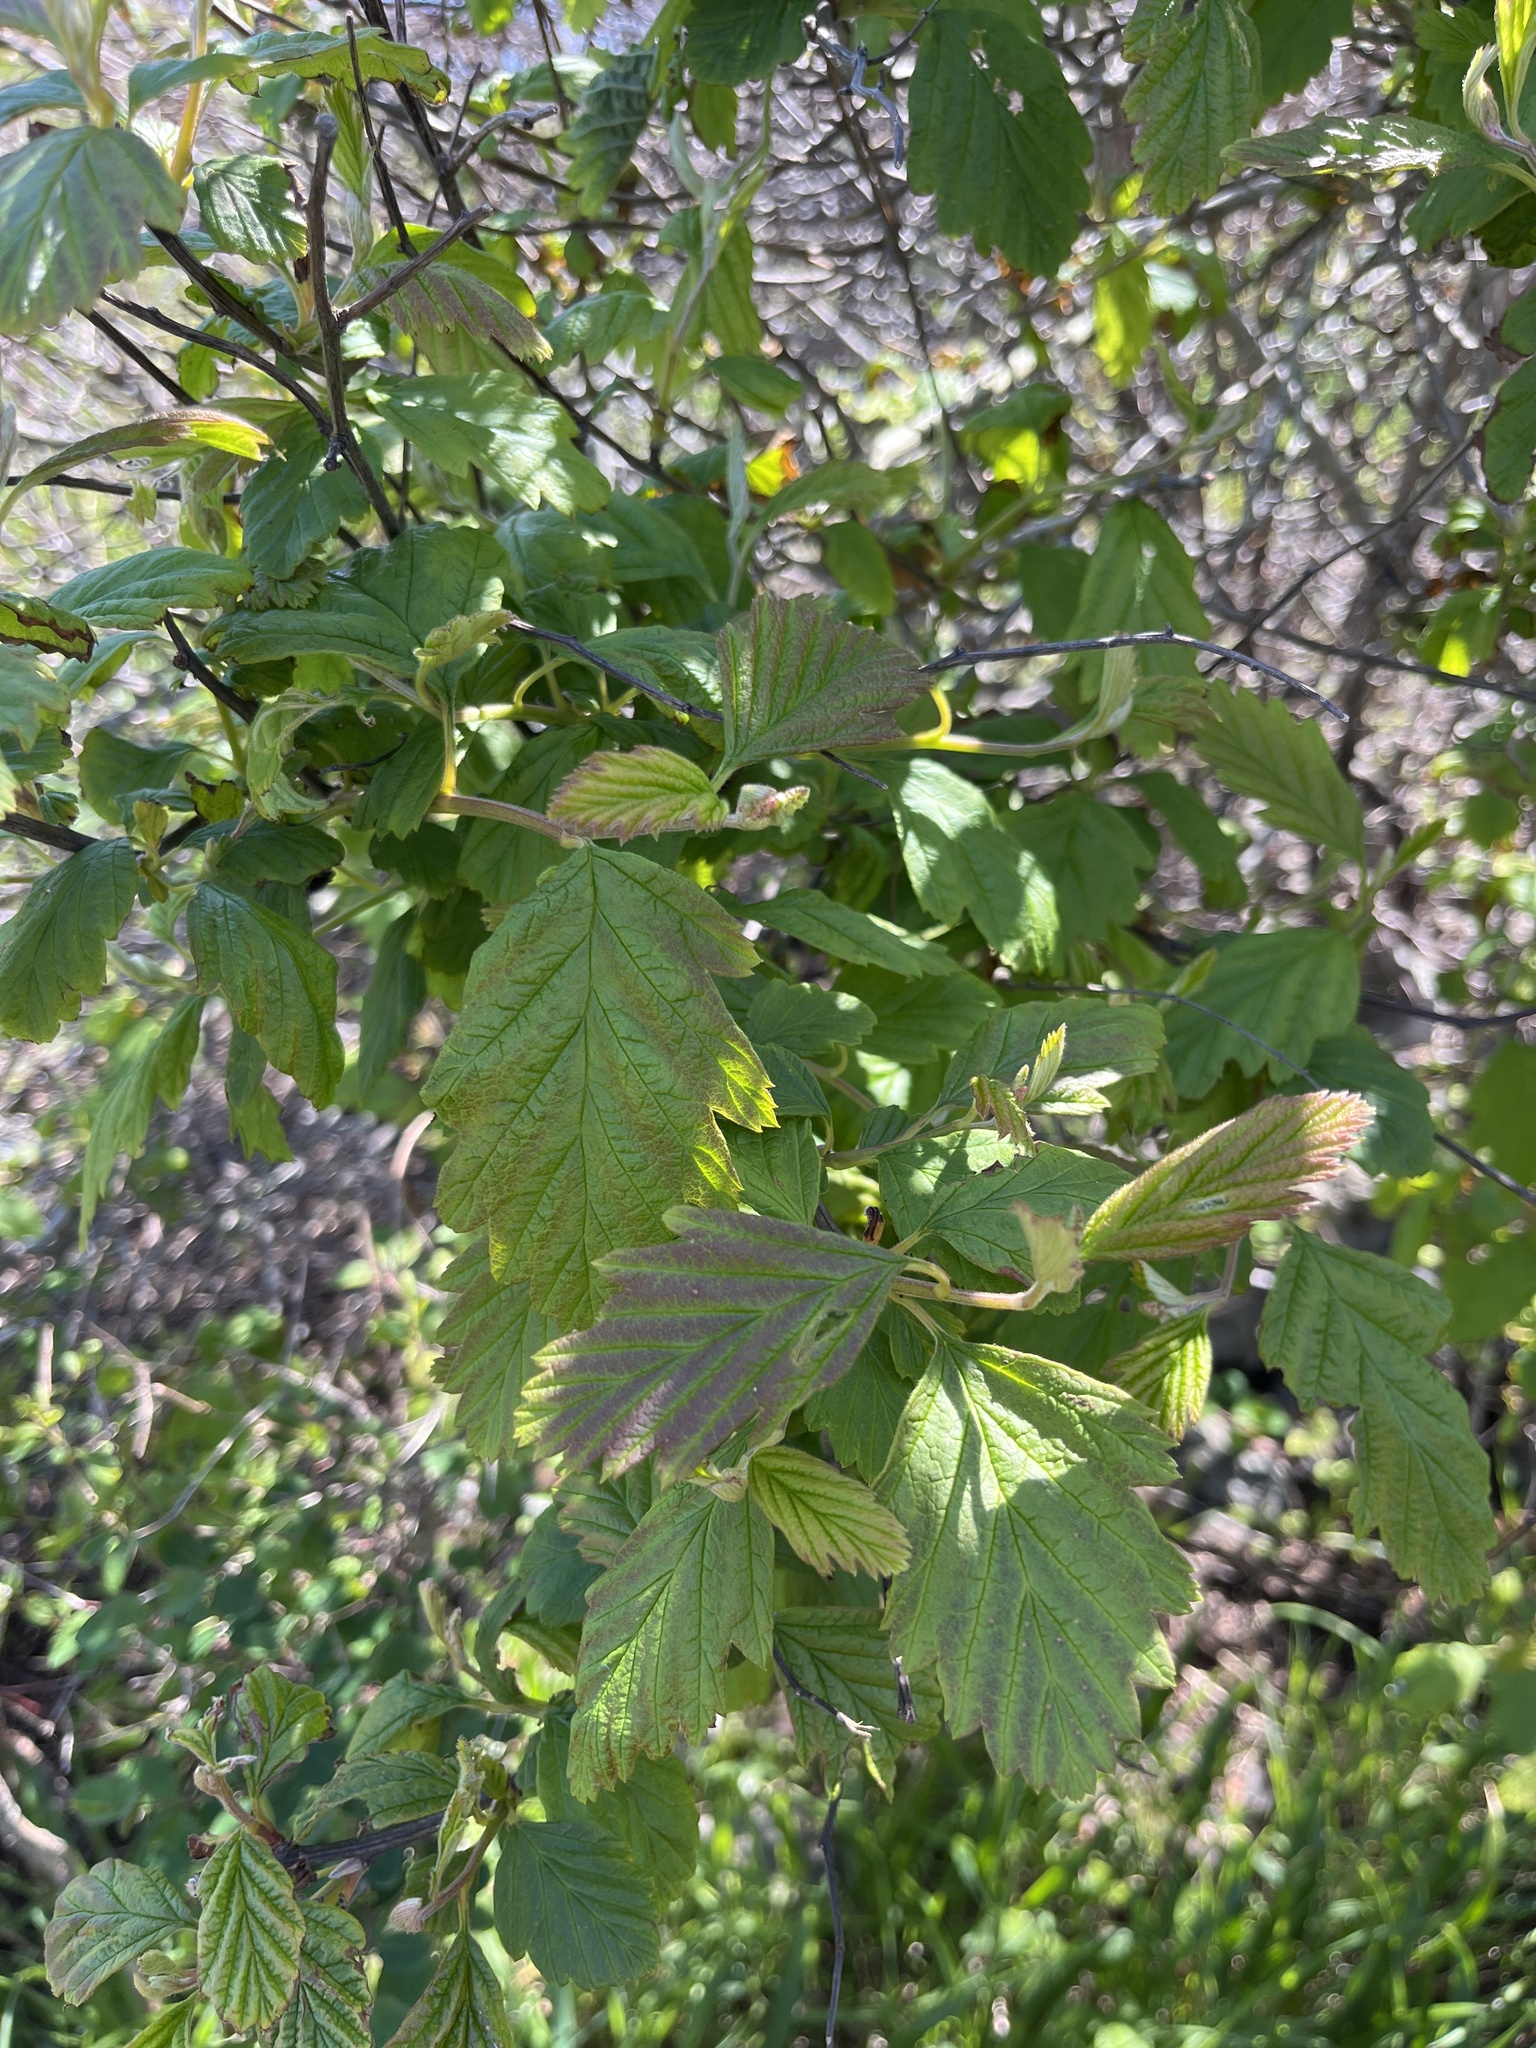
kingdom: Plantae
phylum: Tracheophyta
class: Magnoliopsida
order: Rosales
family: Rosaceae
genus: Holodiscus
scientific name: Holodiscus discolor
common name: Oceanspray
